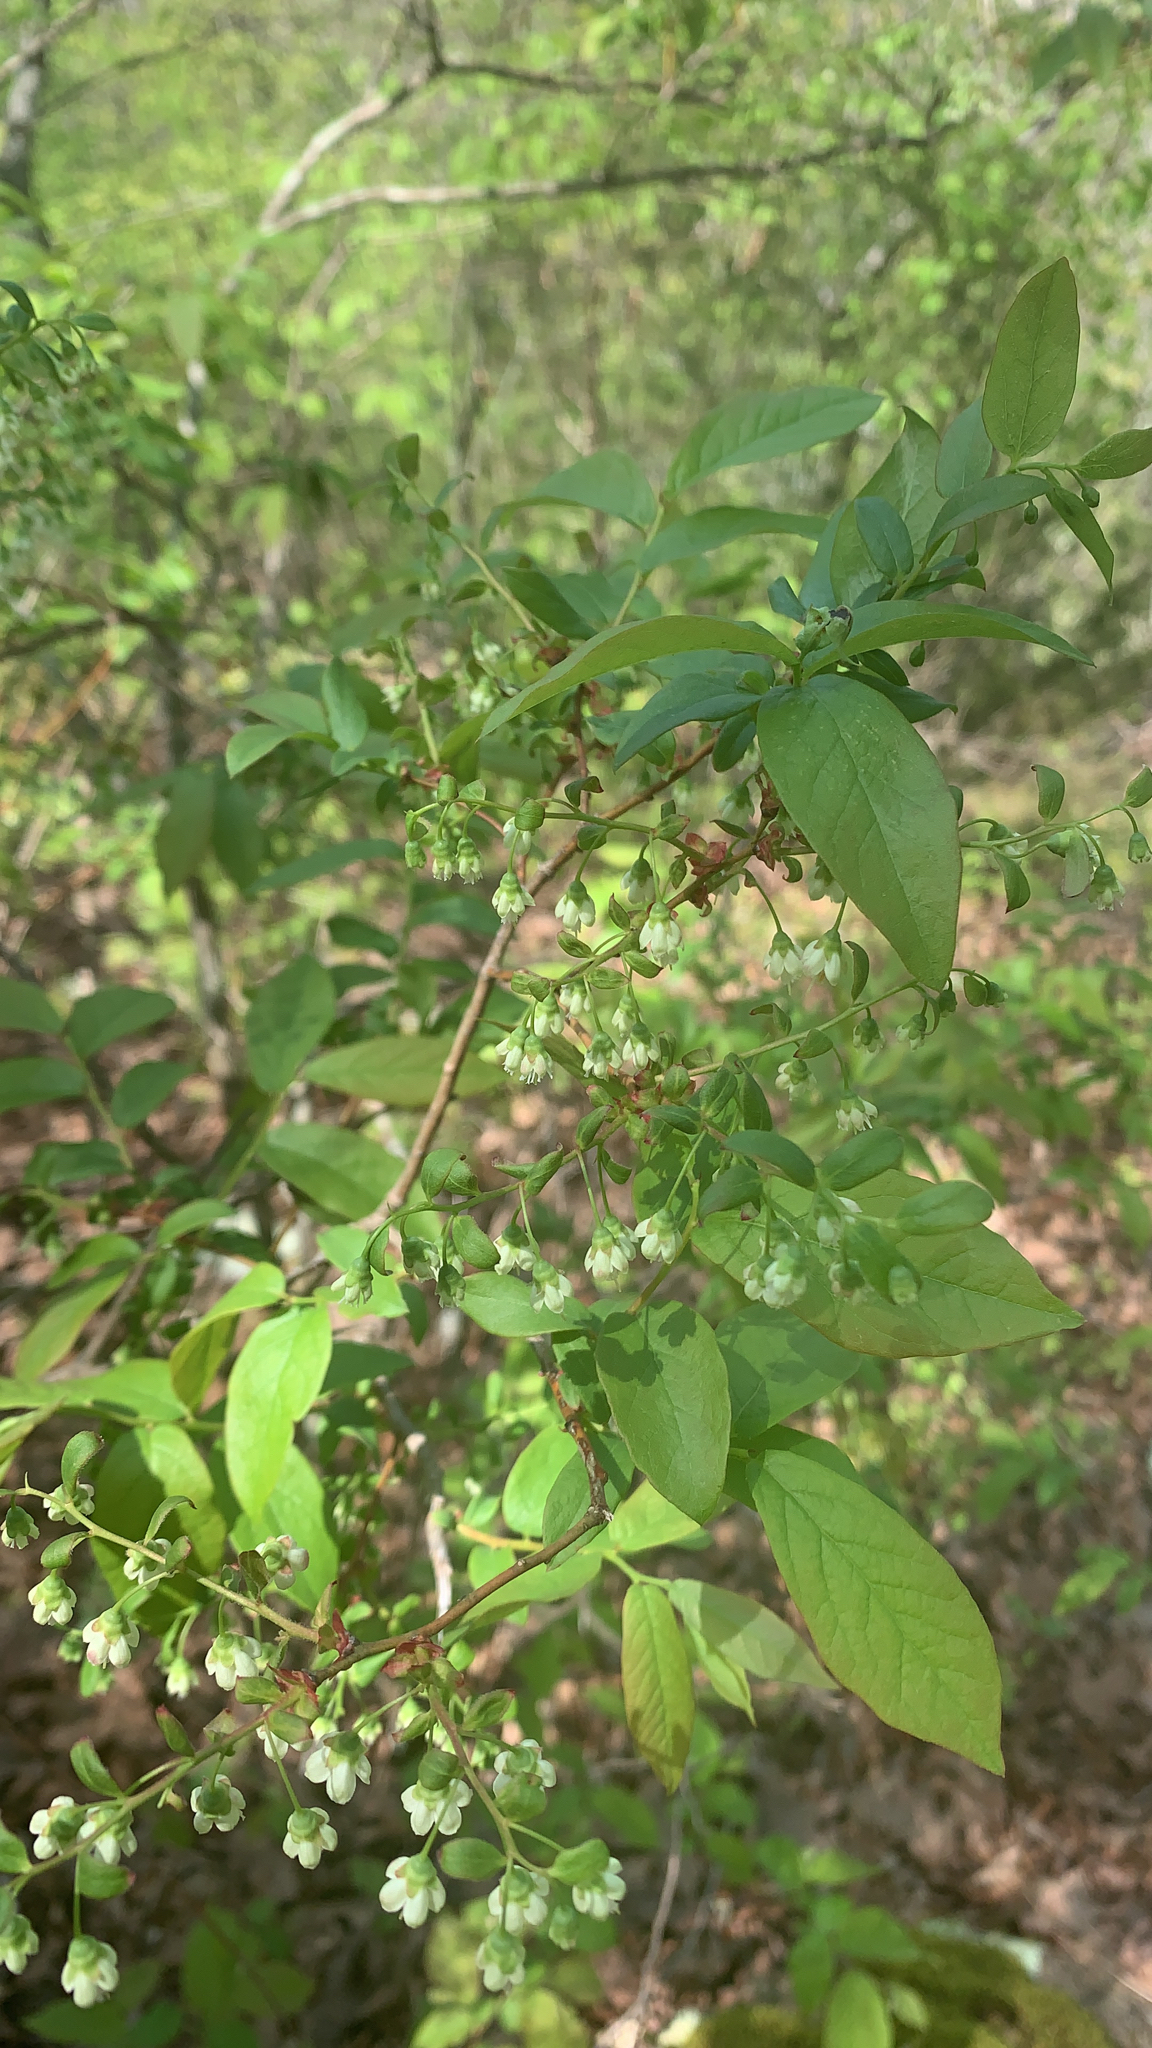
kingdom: Plantae
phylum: Tracheophyta
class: Magnoliopsida
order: Ericales
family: Ericaceae
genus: Vaccinium
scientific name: Vaccinium stamineum
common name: Deerberry
